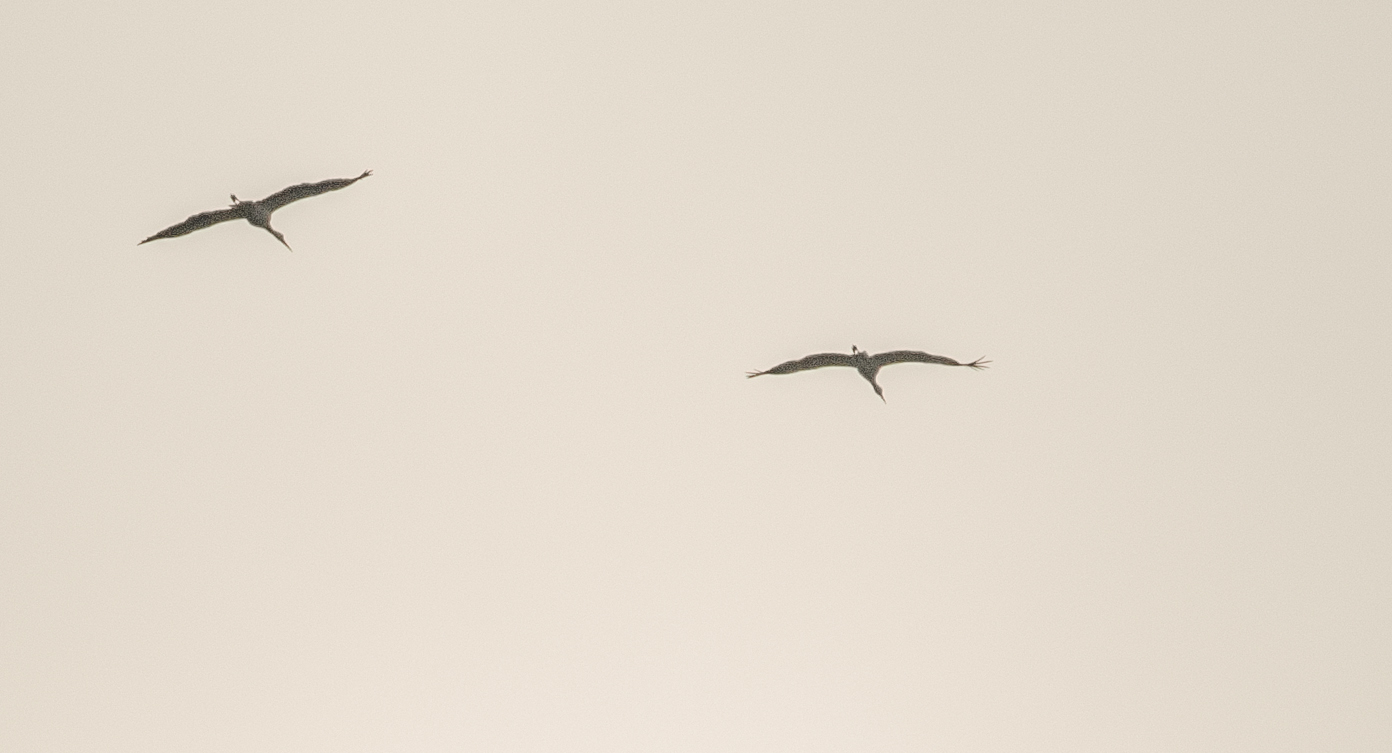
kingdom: Animalia
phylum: Chordata
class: Aves
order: Ciconiiformes
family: Ciconiidae
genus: Ciconia
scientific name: Ciconia ciconia
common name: White stork
